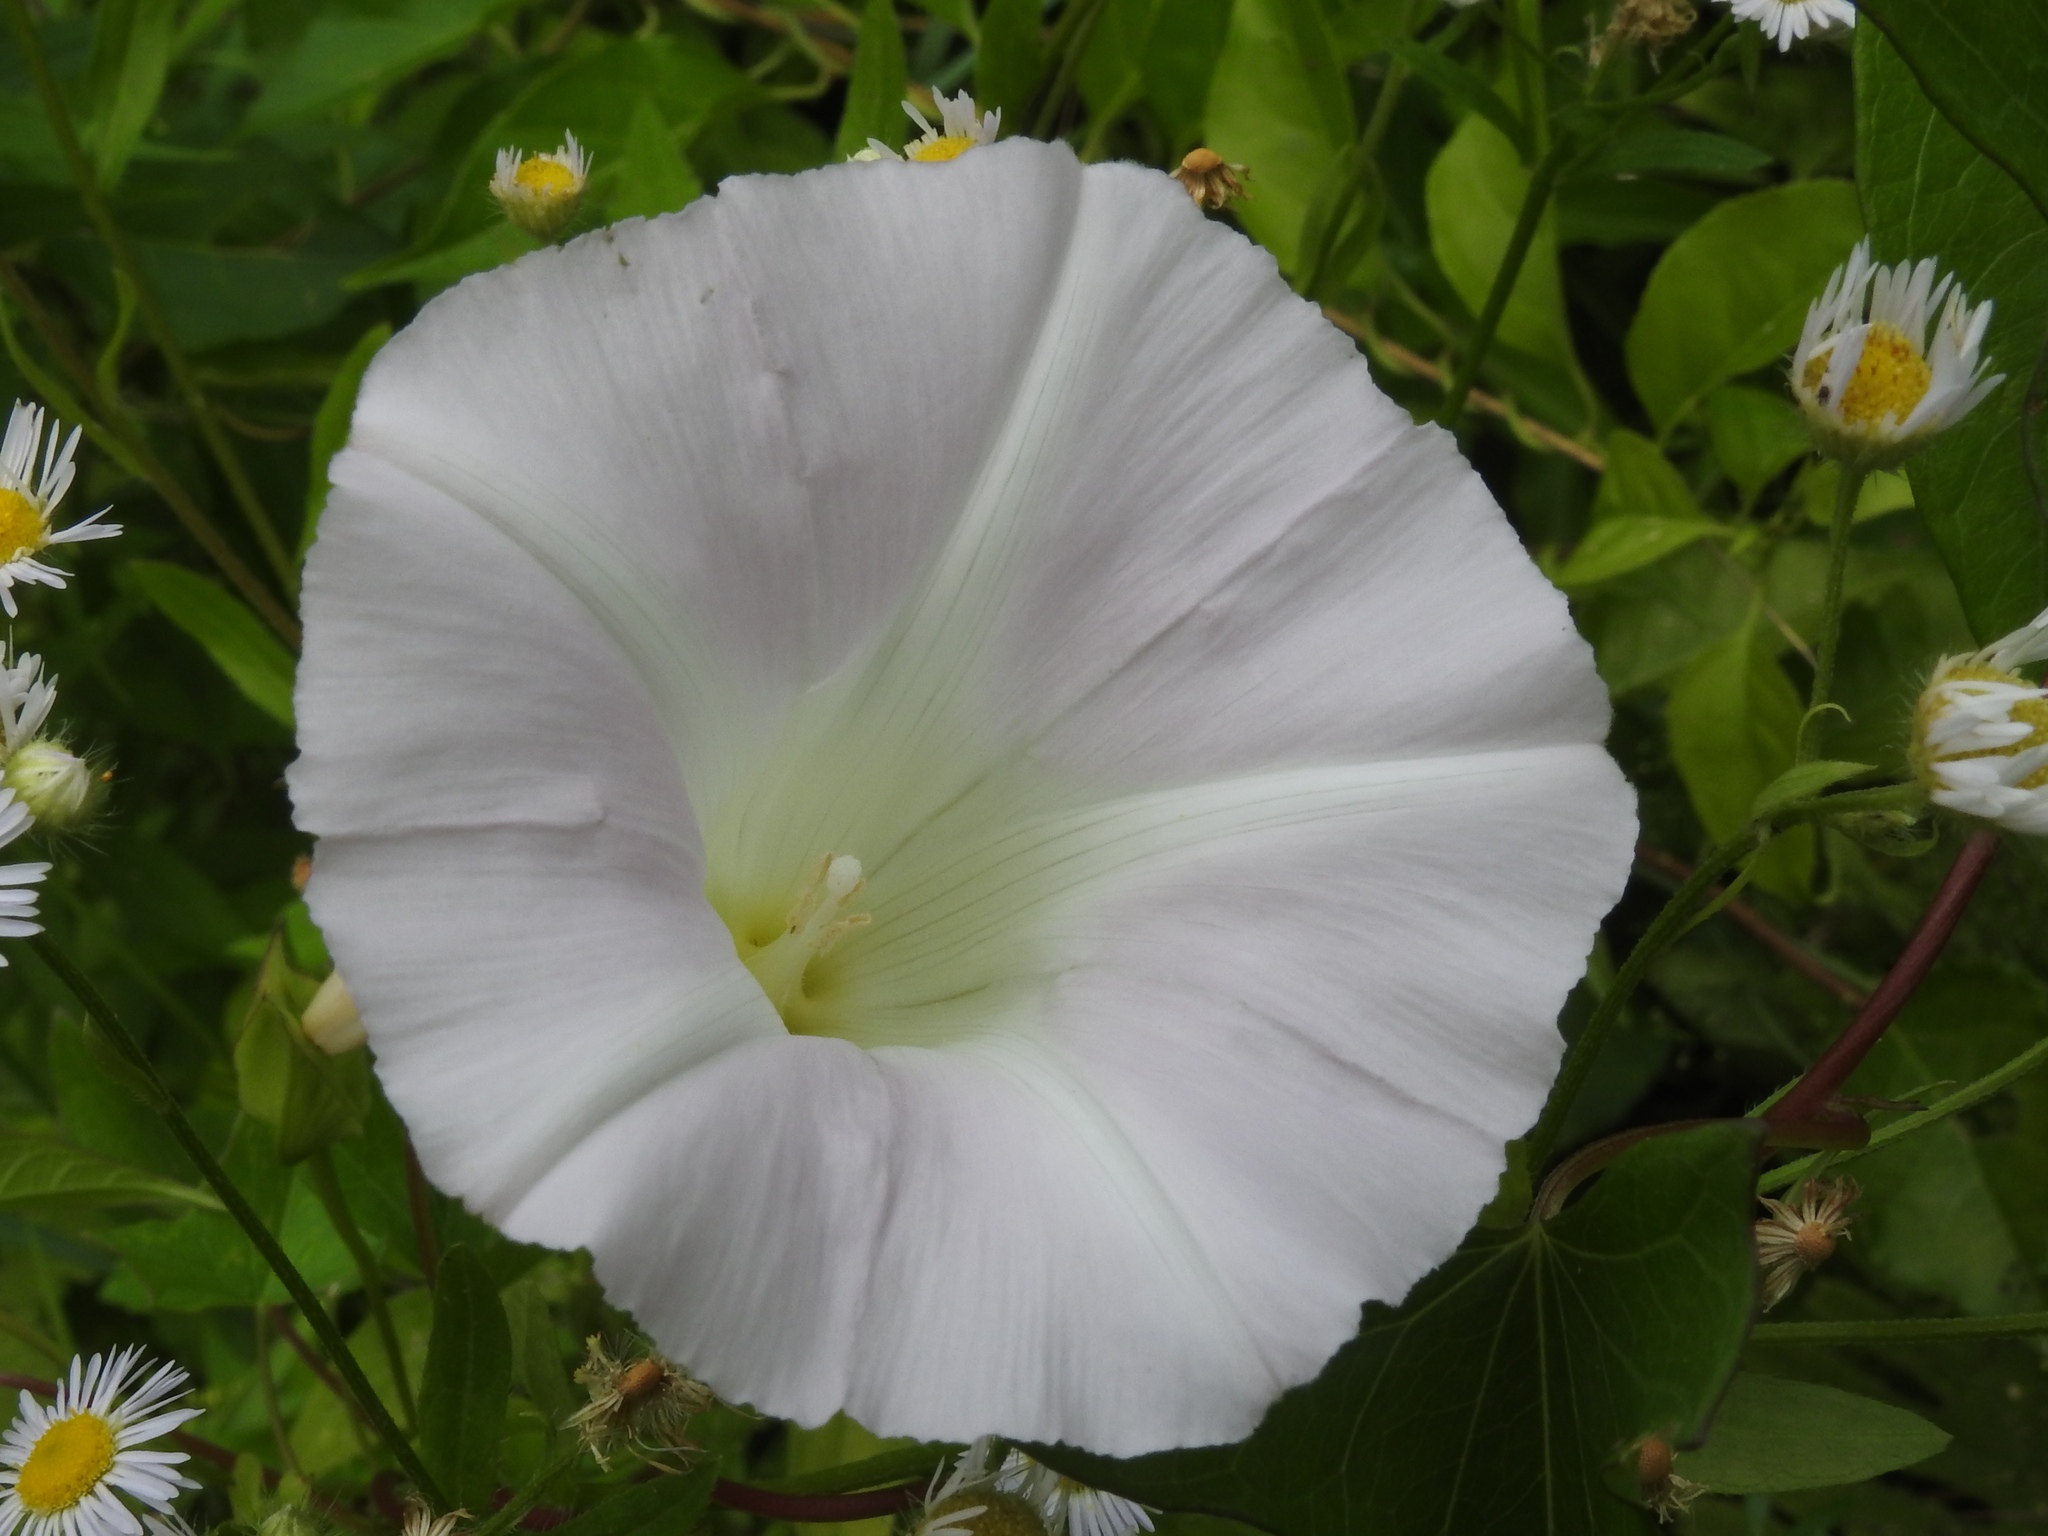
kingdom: Plantae
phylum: Tracheophyta
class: Magnoliopsida
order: Solanales
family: Convolvulaceae
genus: Calystegia
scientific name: Calystegia sepium
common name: Hedge bindweed
